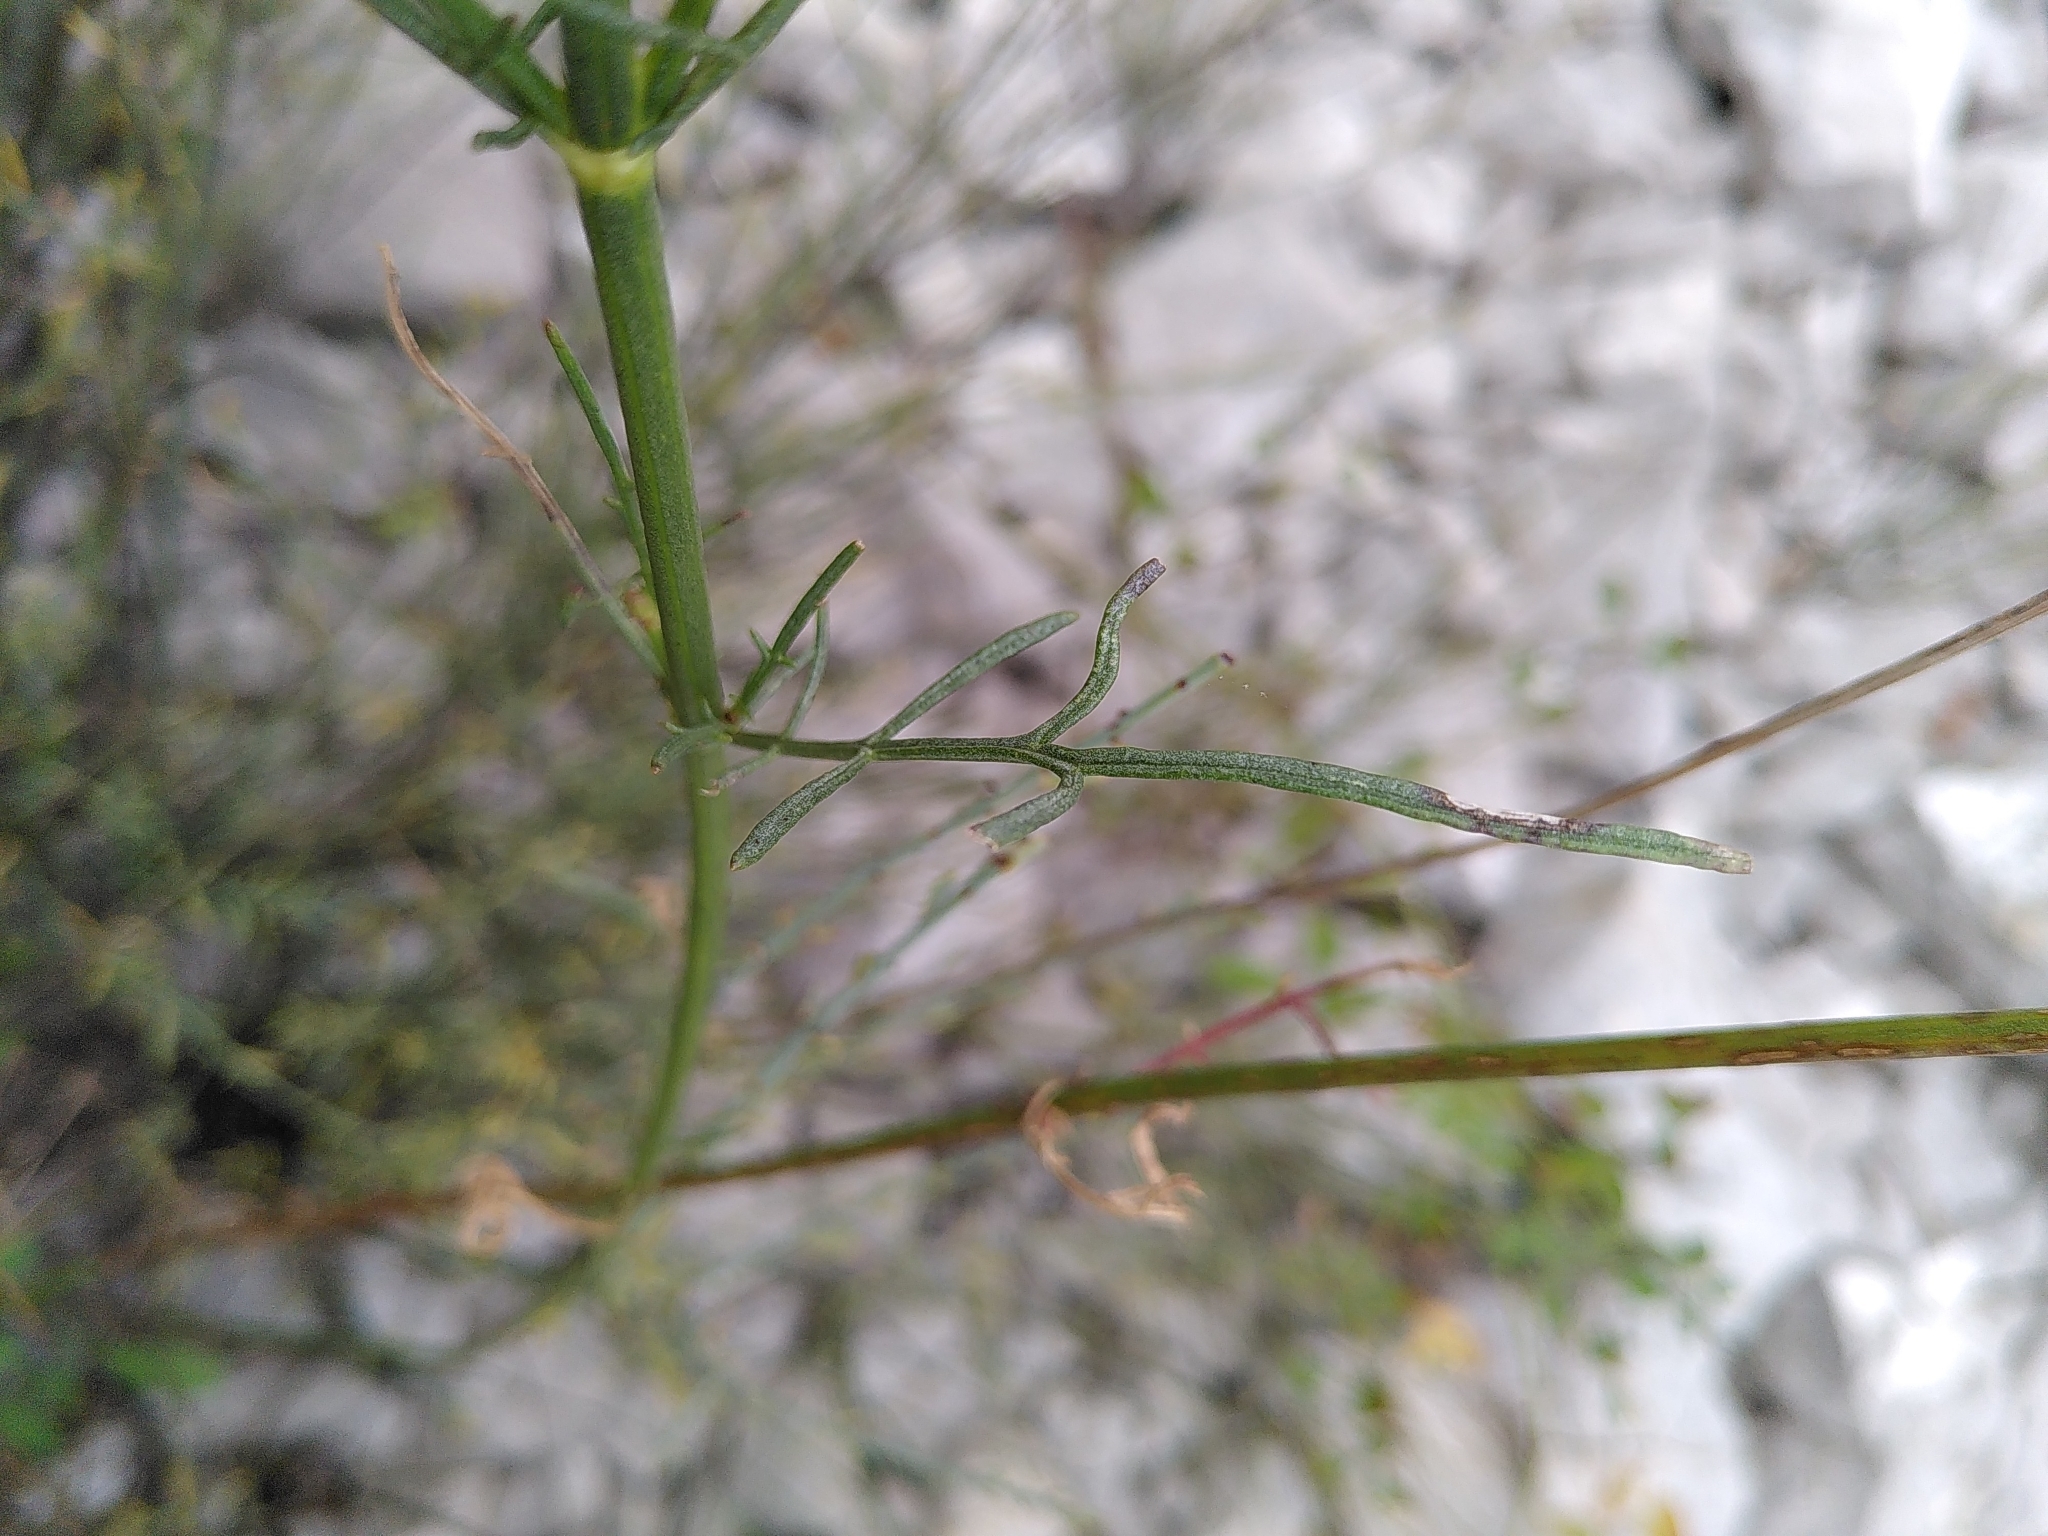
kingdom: Plantae
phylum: Tracheophyta
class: Magnoliopsida
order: Dipsacales
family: Caprifoliaceae
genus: Cephalaria
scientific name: Cephalaria leucantha
